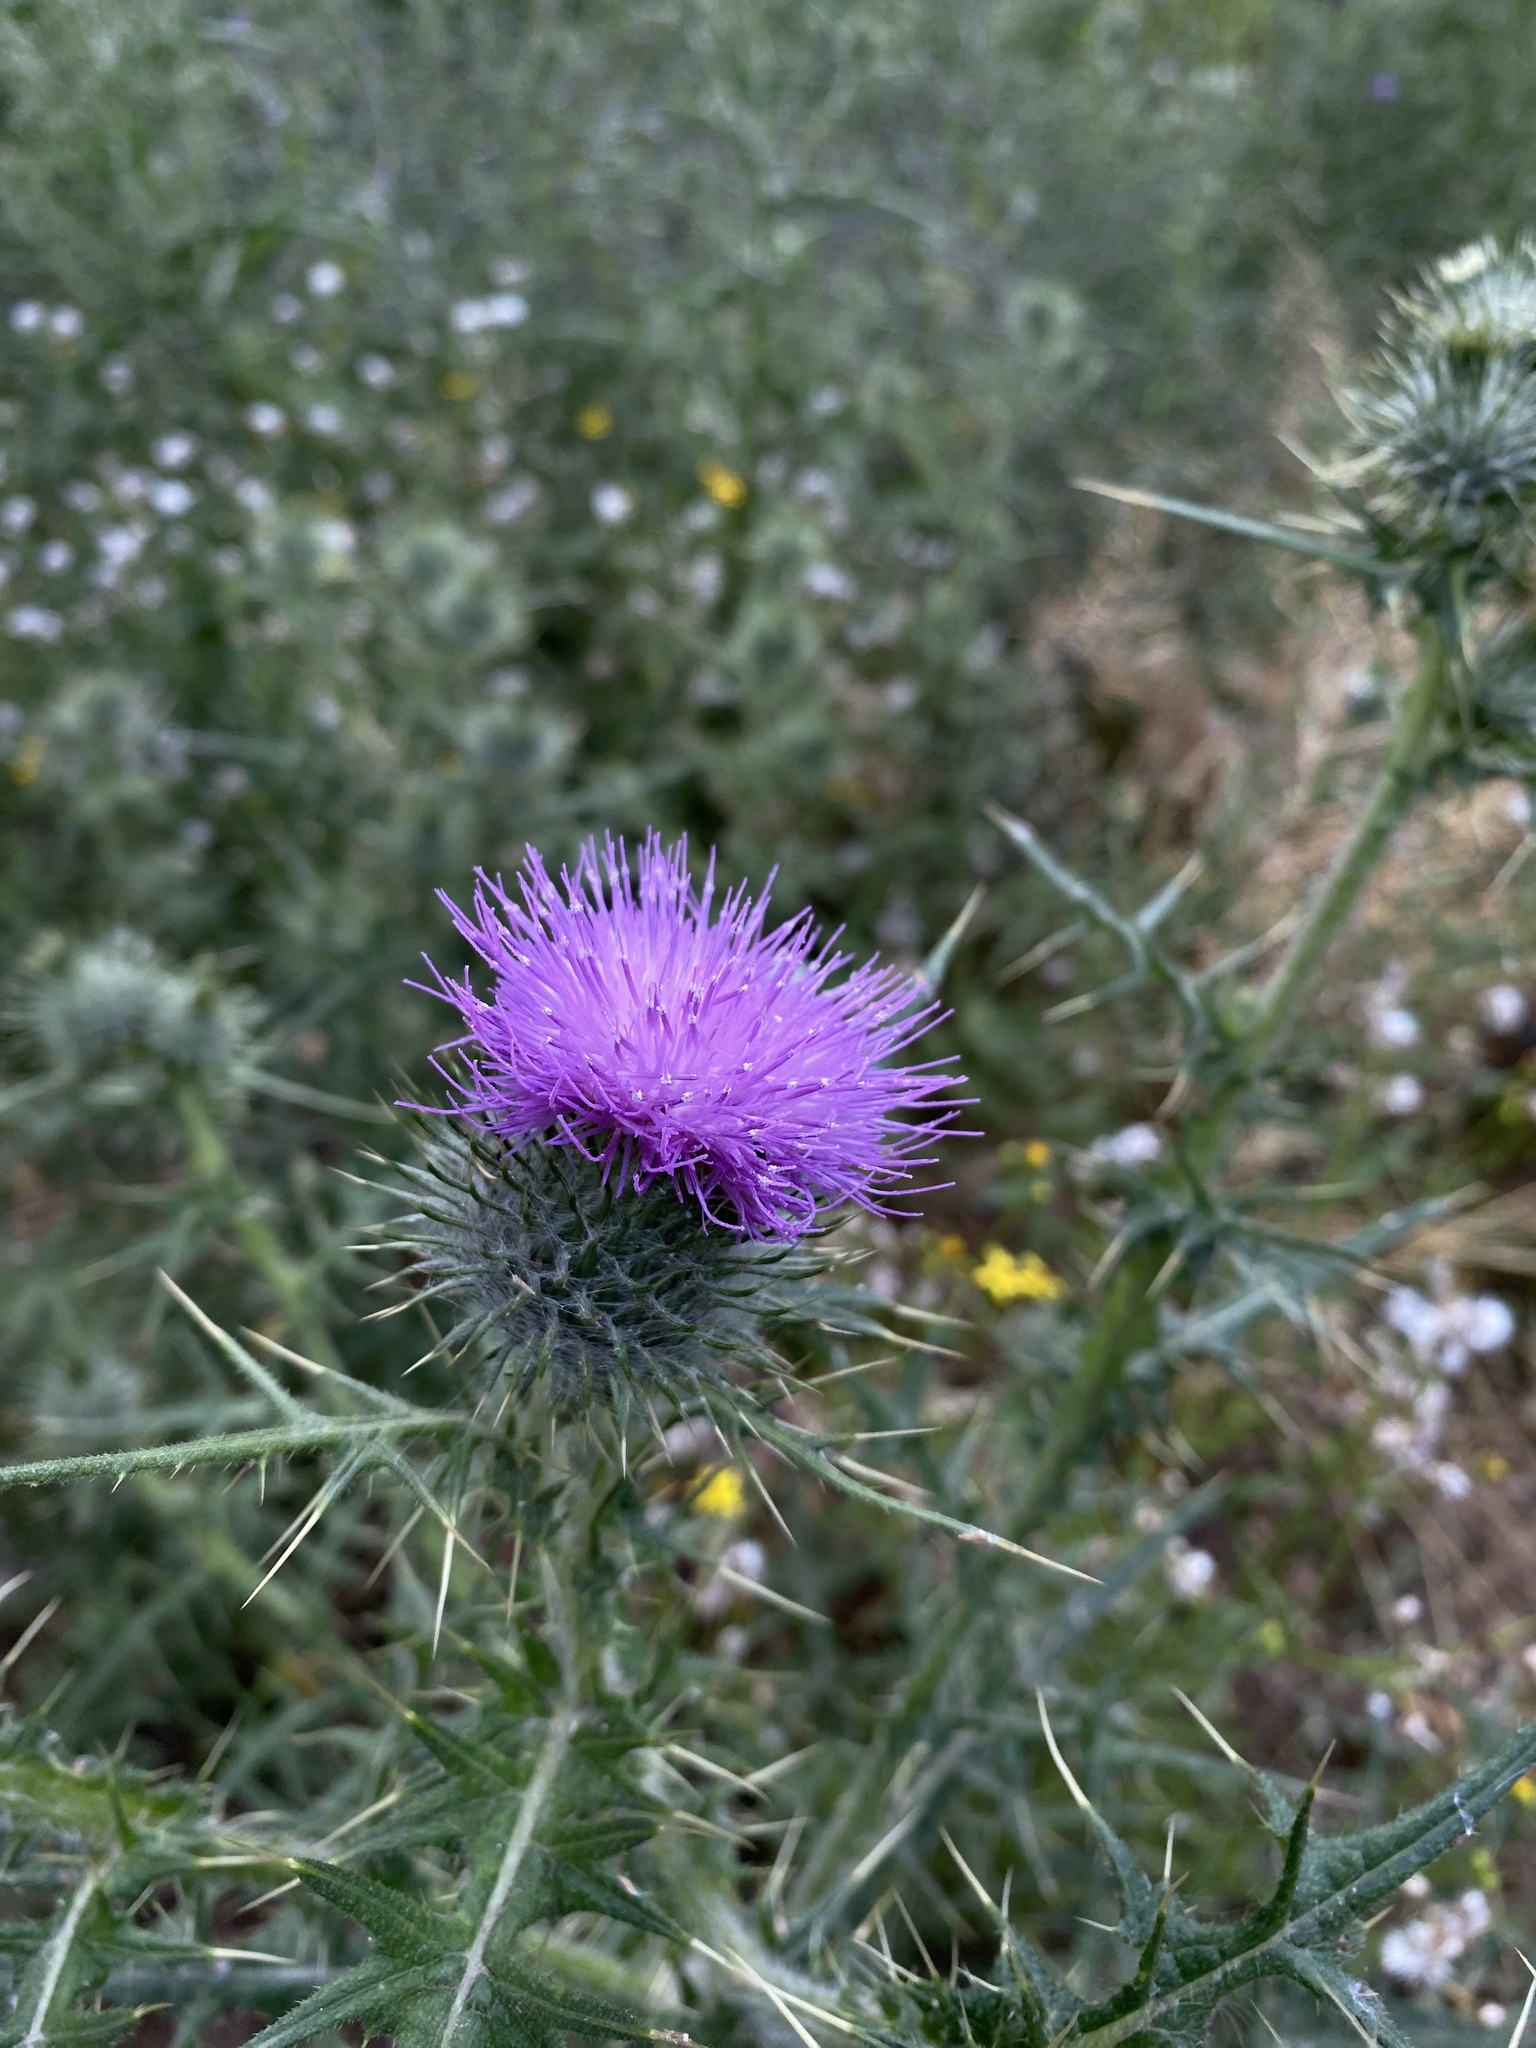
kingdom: Plantae
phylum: Tracheophyta
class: Magnoliopsida
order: Asterales
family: Asteraceae
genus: Cirsium
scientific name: Cirsium vulgare
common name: Bull thistle
